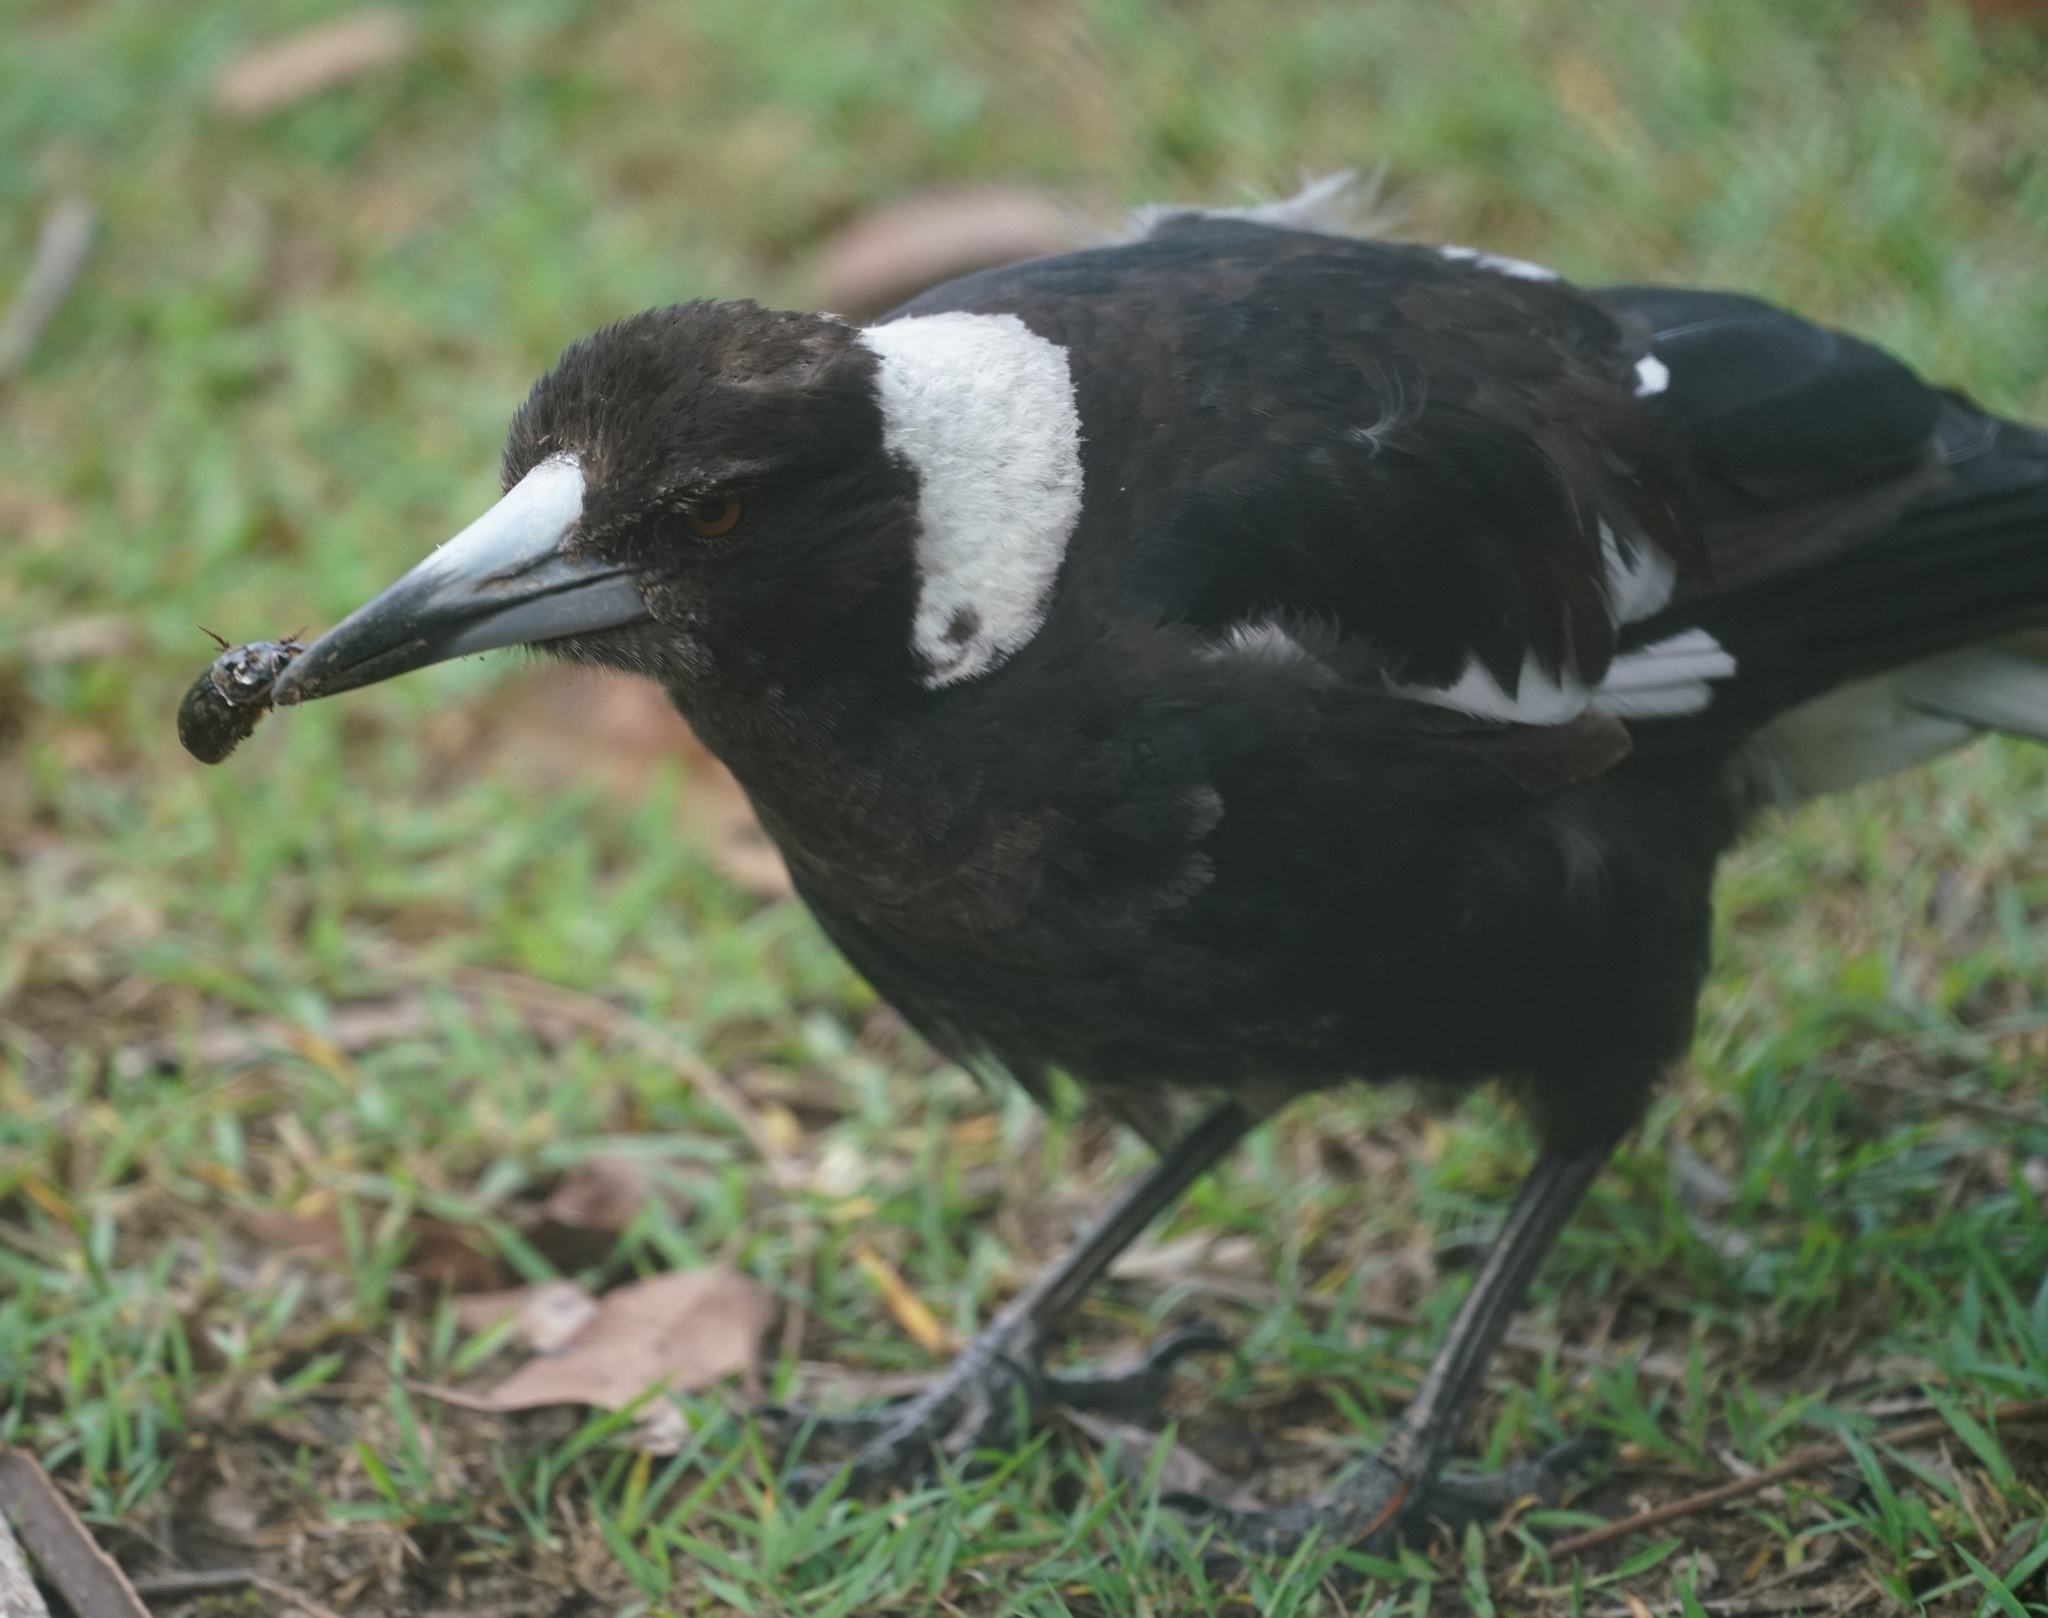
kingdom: Animalia
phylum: Chordata
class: Aves
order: Passeriformes
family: Cracticidae
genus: Gymnorhina
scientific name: Gymnorhina tibicen
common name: Australian magpie
